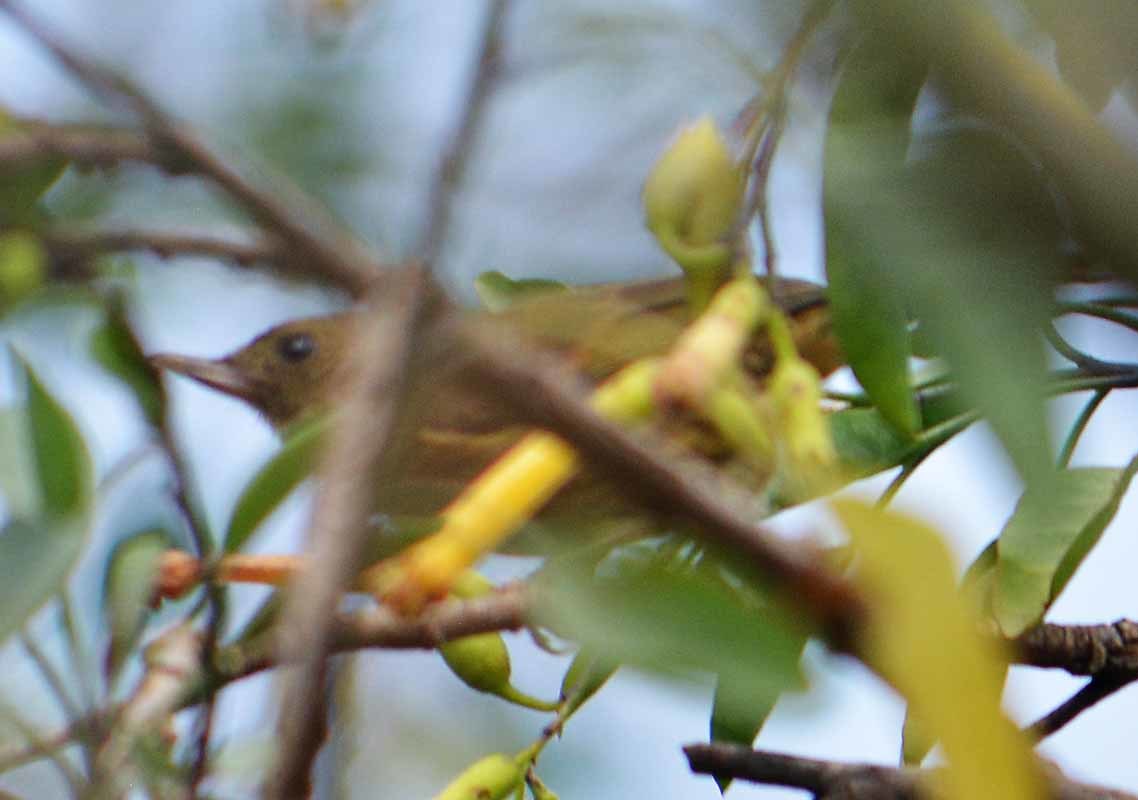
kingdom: Animalia
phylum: Chordata
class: Aves
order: Passeriformes
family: Thraupidae
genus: Diglossa
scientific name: Diglossa baritula
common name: Cinnamon-bellied flowerpiercer
